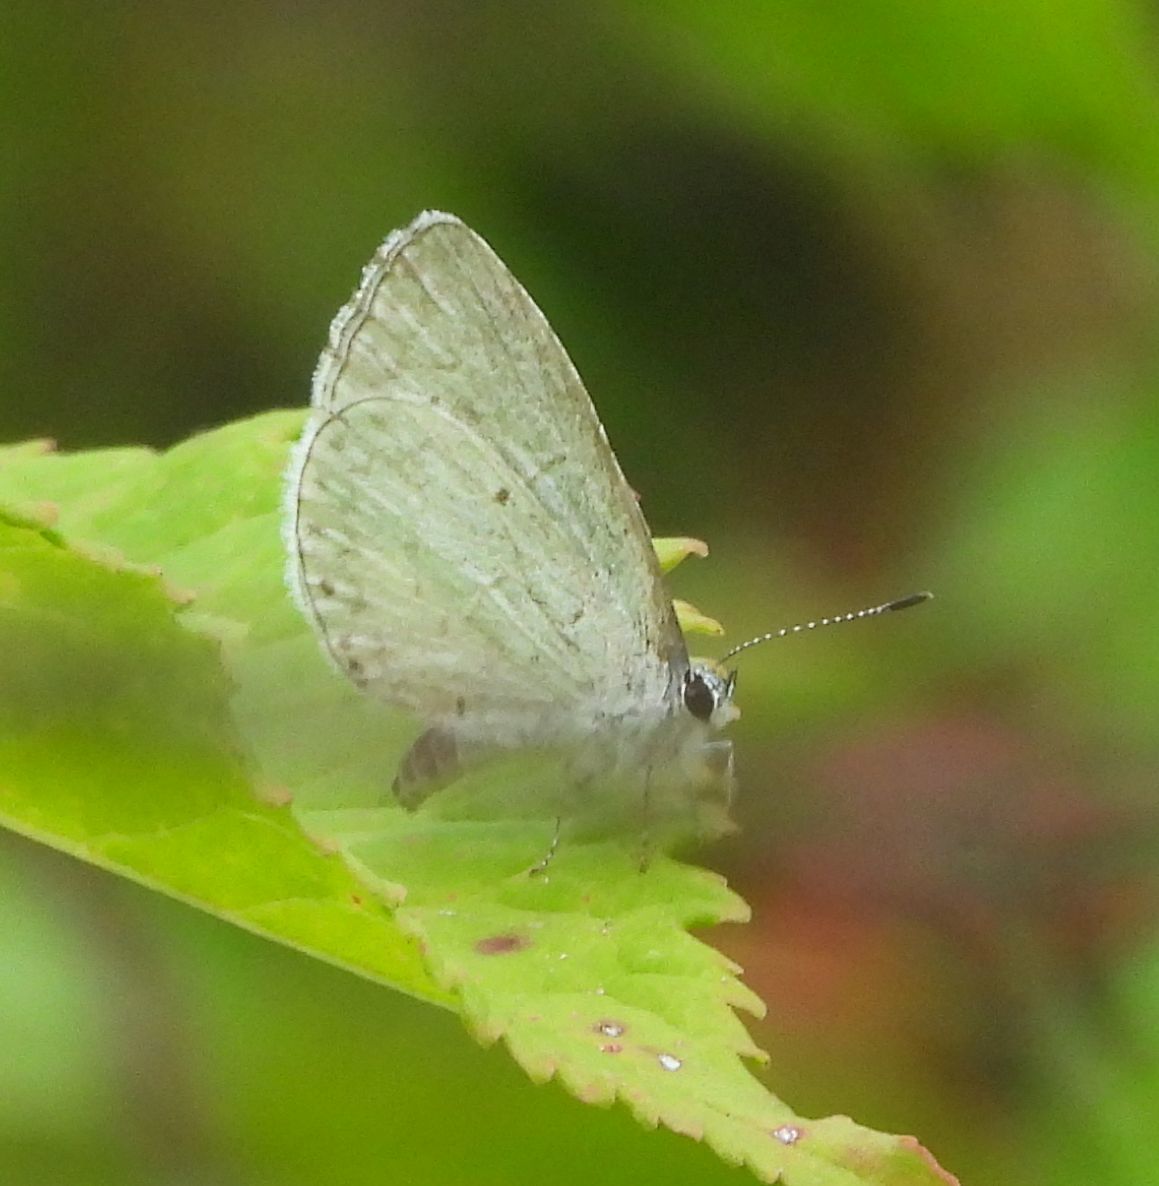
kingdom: Animalia
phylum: Arthropoda
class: Insecta
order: Lepidoptera
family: Lycaenidae
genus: Celastrina
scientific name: Celastrina lucia
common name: Lucia azure
